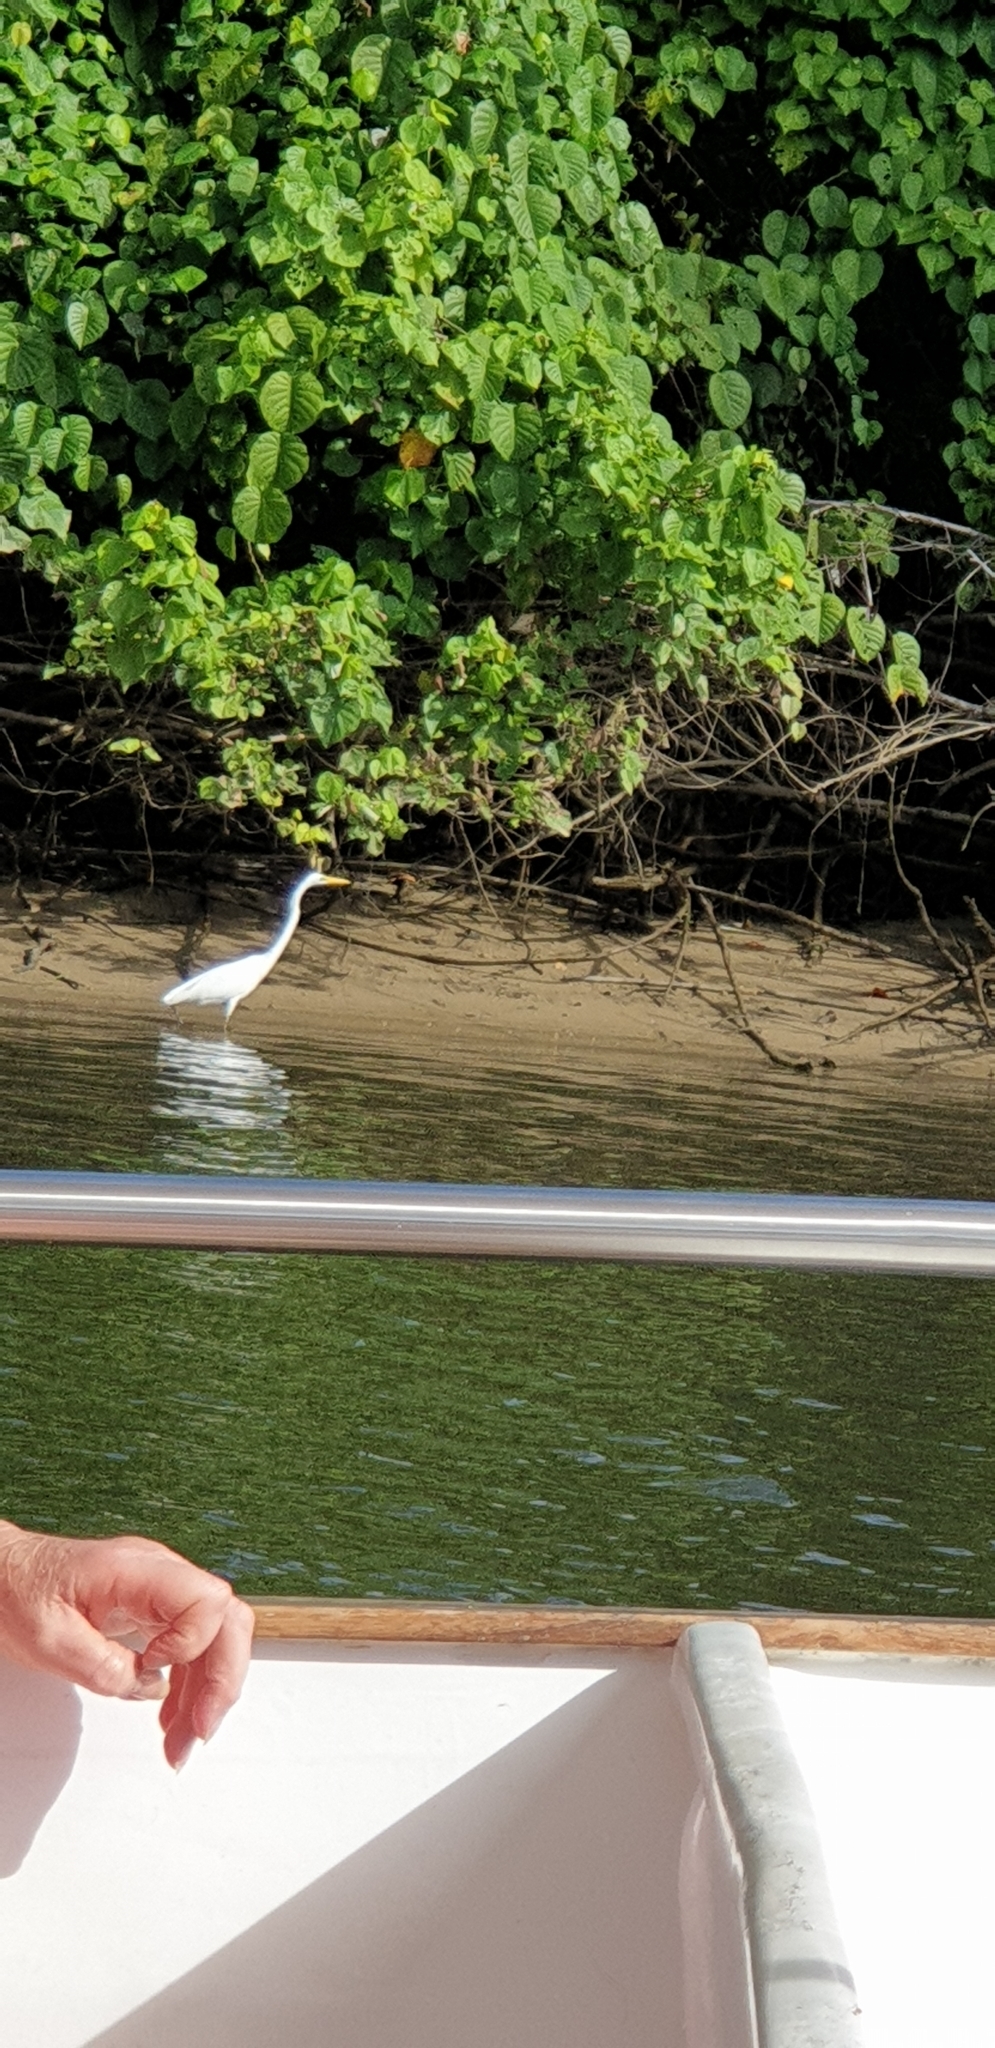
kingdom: Animalia
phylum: Chordata
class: Aves
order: Pelecaniformes
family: Ardeidae
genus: Ardea
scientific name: Ardea alba
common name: Great egret
